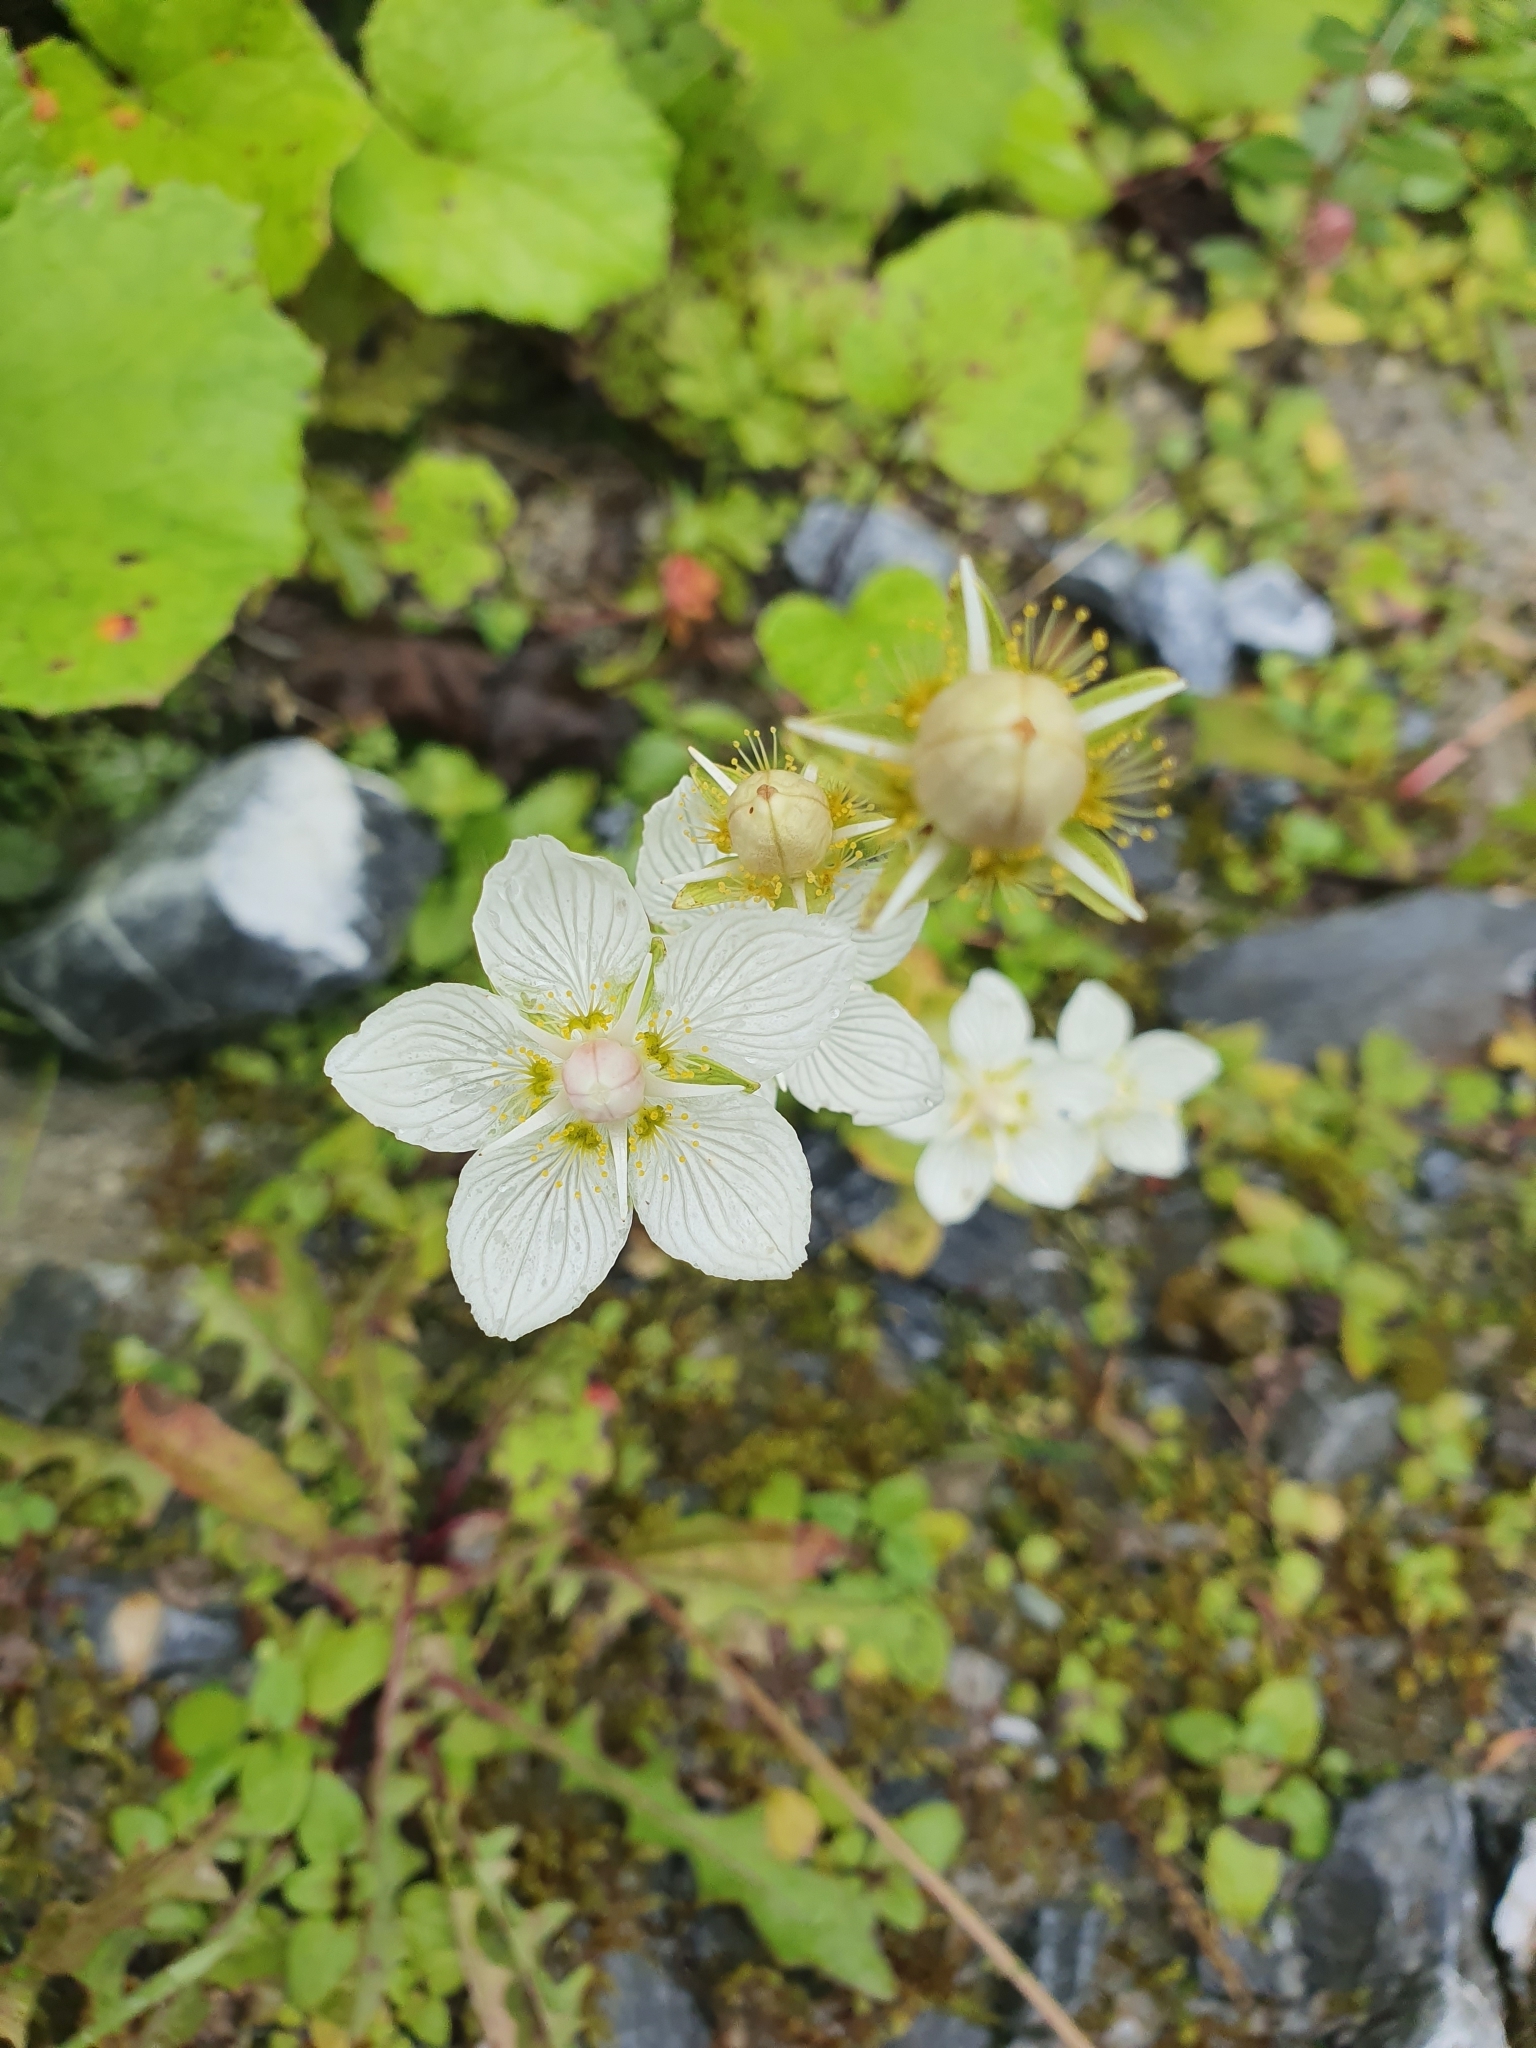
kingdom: Plantae
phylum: Tracheophyta
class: Magnoliopsida
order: Celastrales
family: Parnassiaceae
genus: Parnassia
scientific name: Parnassia palustris
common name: Grass-of-parnassus
